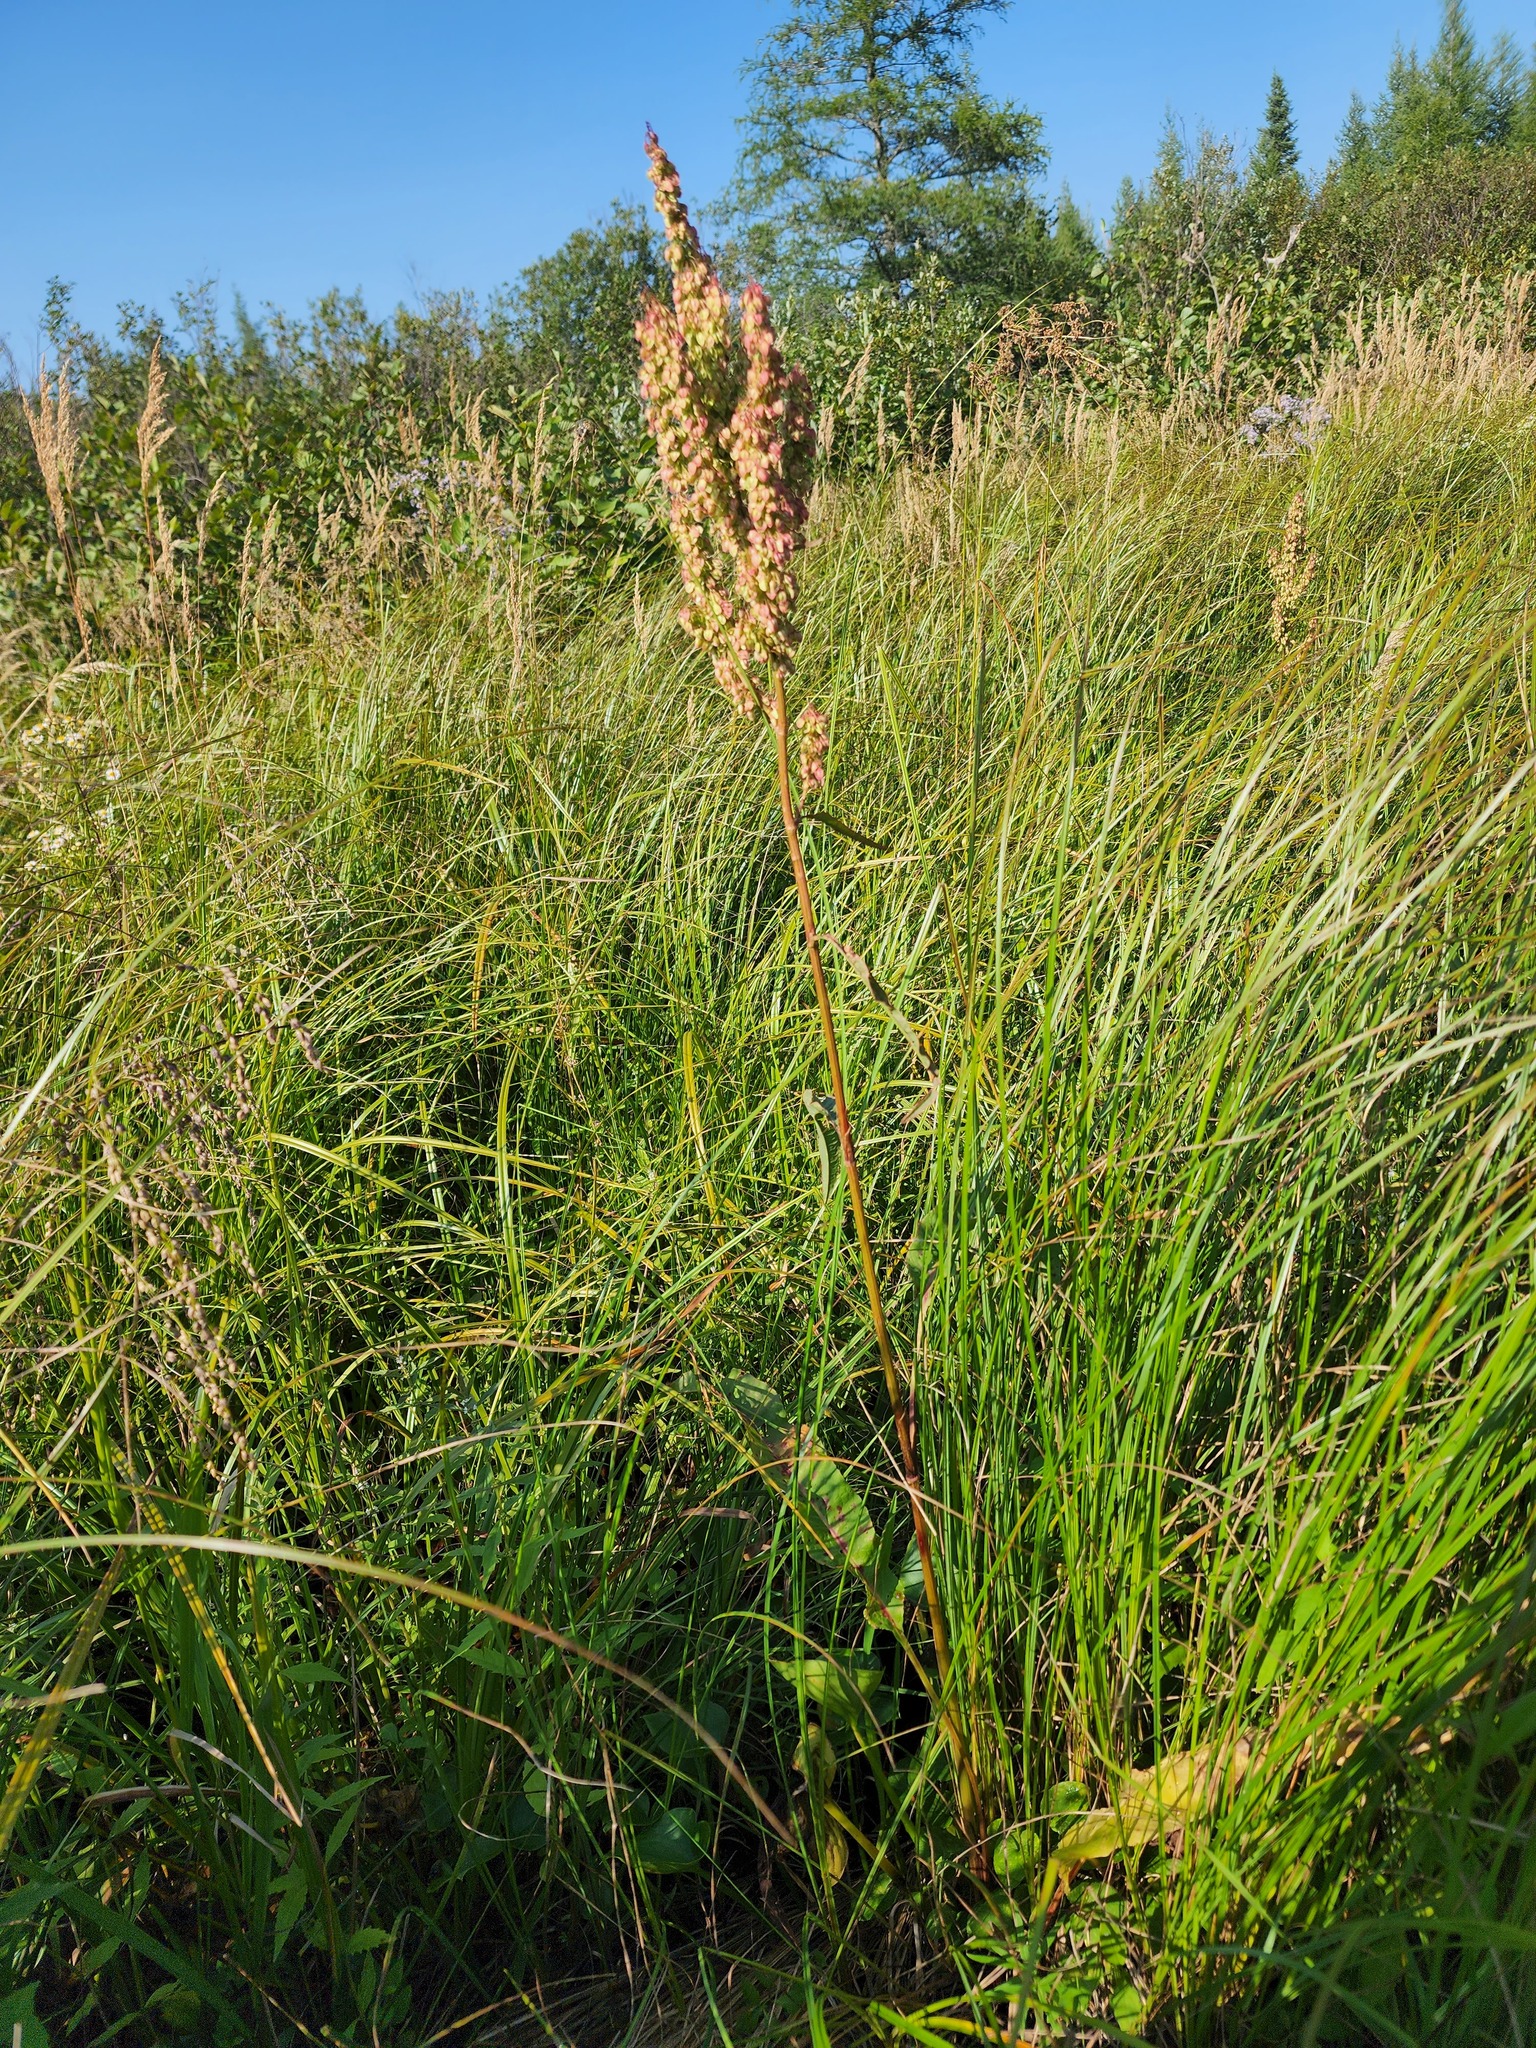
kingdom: Plantae
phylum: Tracheophyta
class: Magnoliopsida
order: Caryophyllales
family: Polygonaceae
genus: Rumex
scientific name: Rumex britannica
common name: British dock
